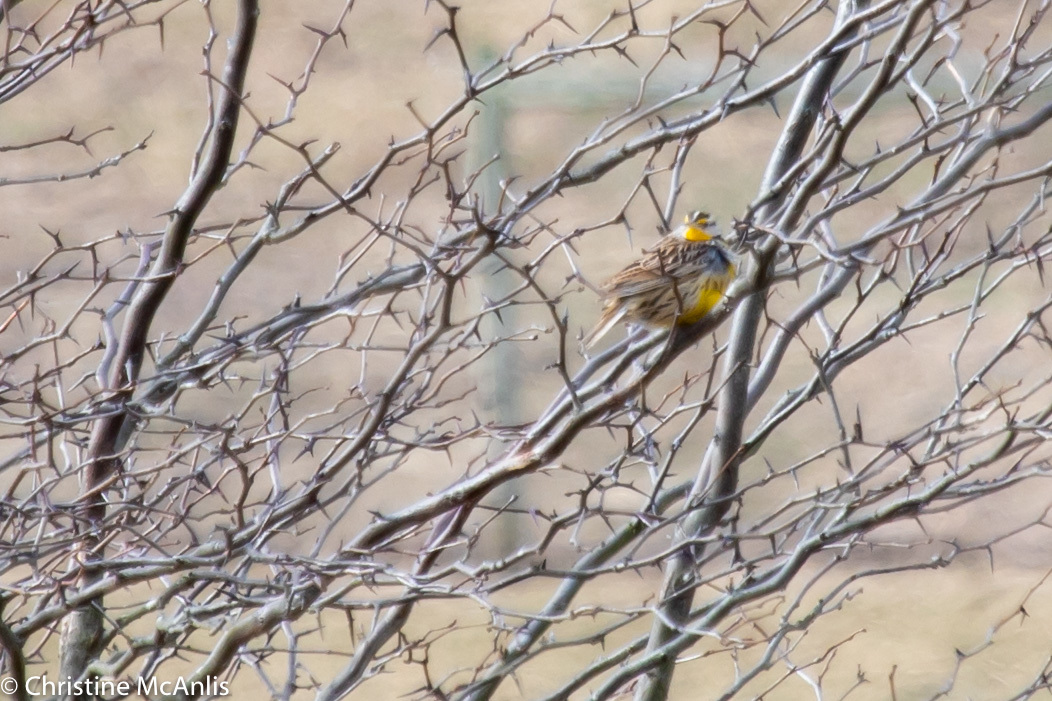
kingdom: Animalia
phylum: Chordata
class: Aves
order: Passeriformes
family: Icteridae
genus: Sturnella
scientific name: Sturnella magna
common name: Eastern meadowlark
